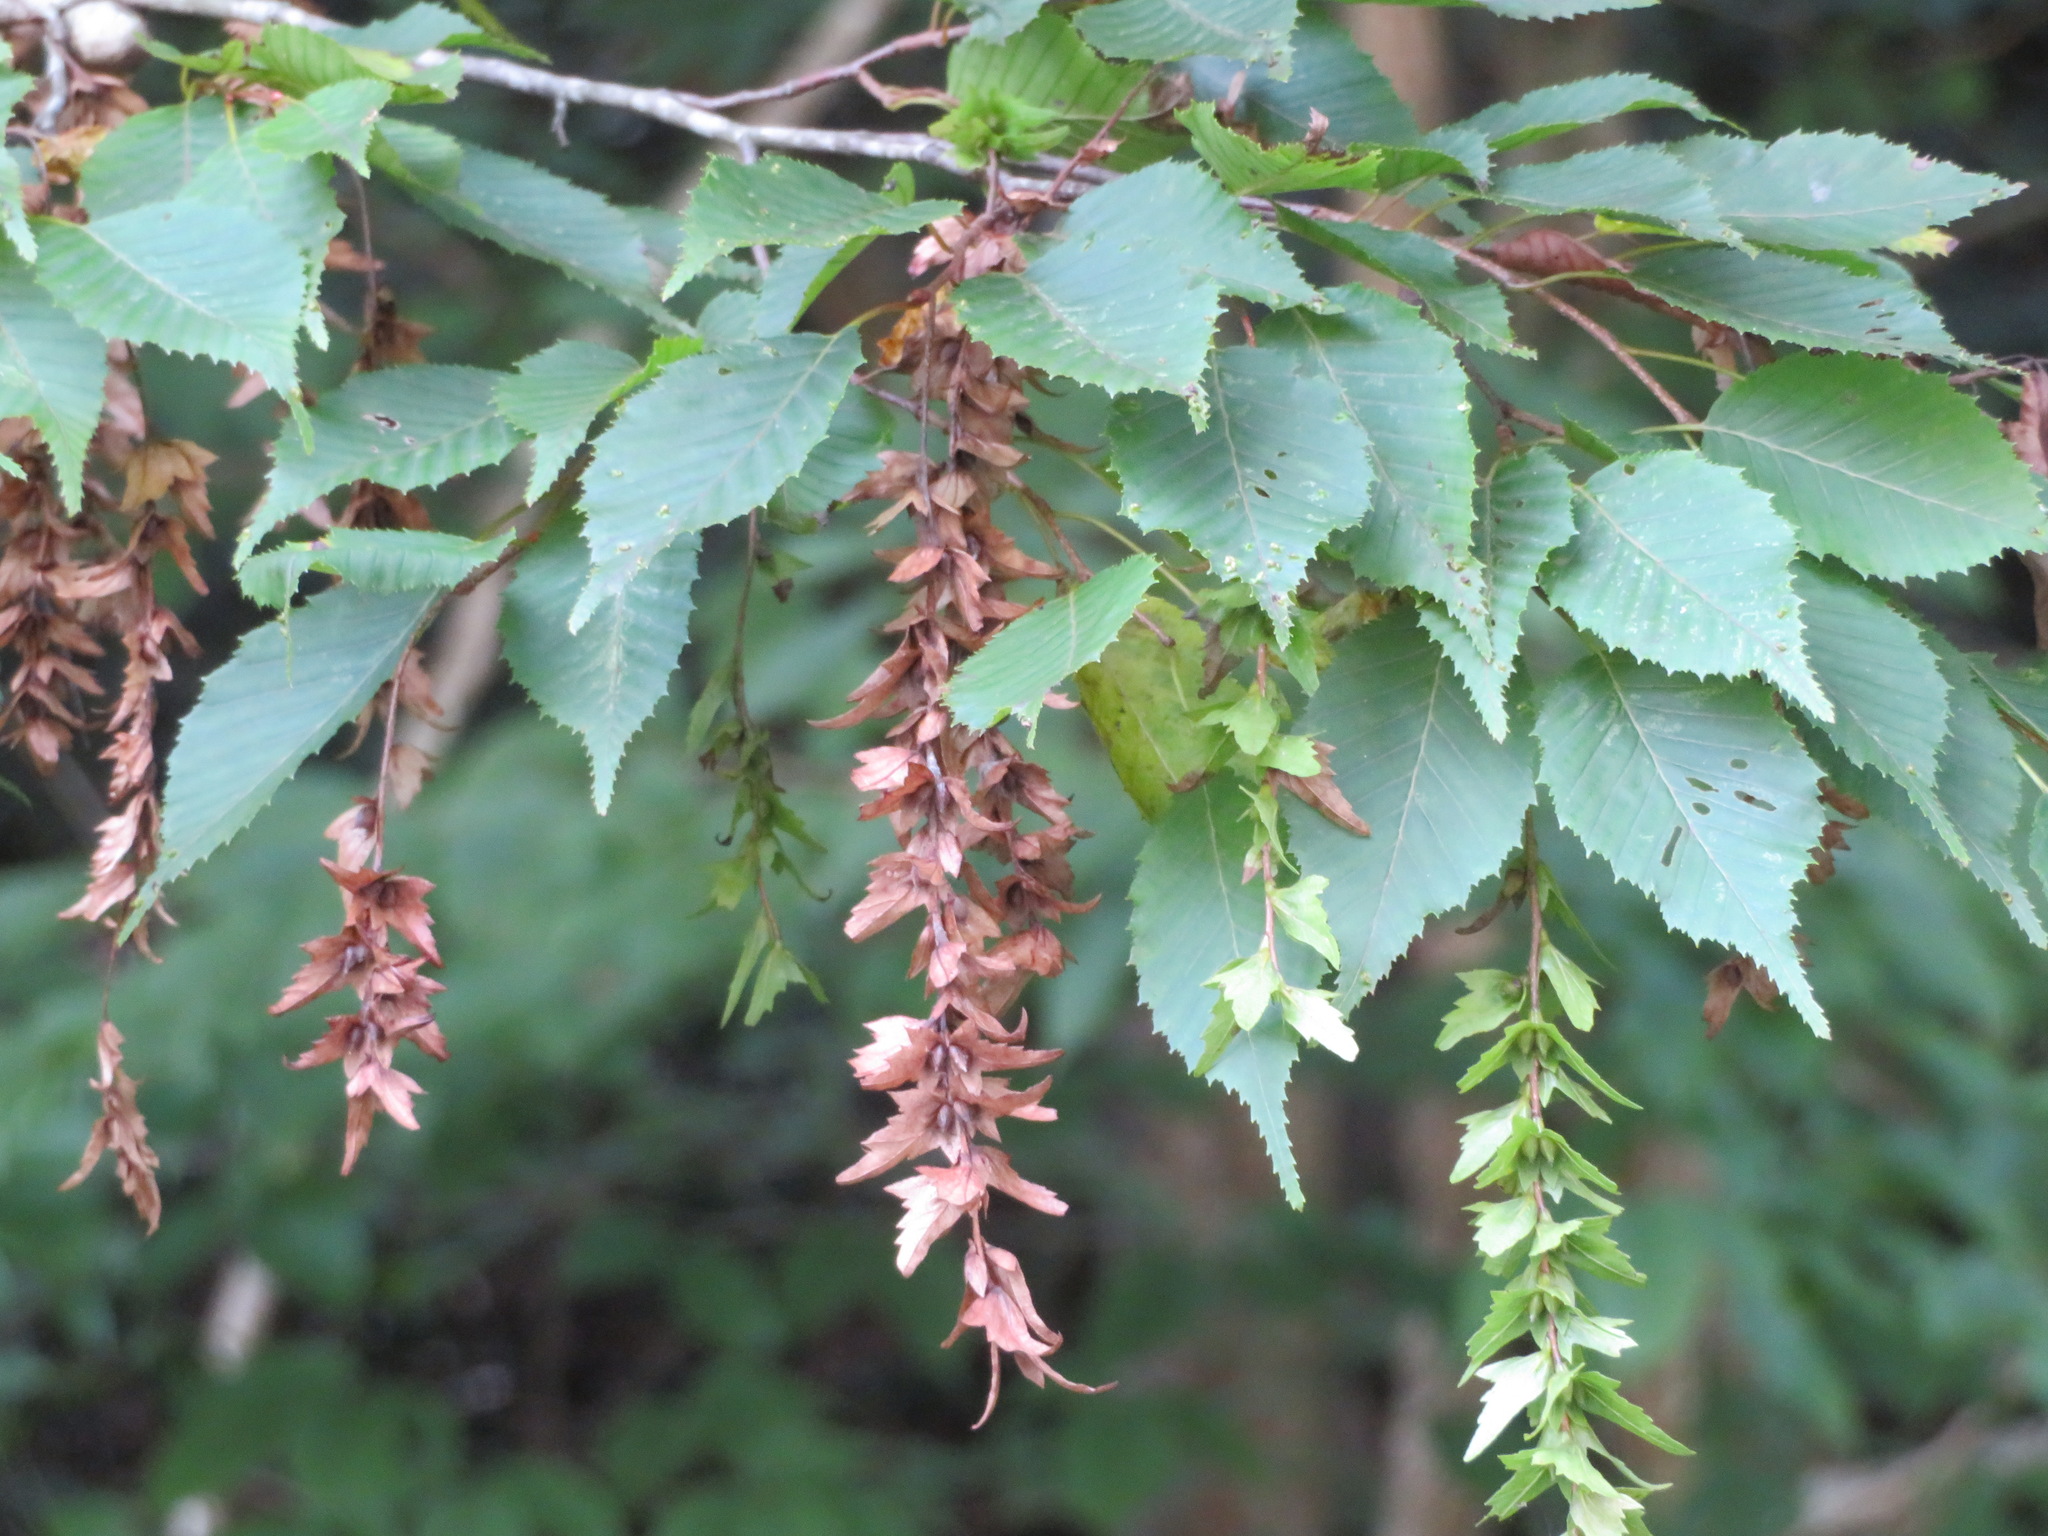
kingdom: Plantae
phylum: Tracheophyta
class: Magnoliopsida
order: Fagales
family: Betulaceae
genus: Carpinus
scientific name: Carpinus laxiflora
